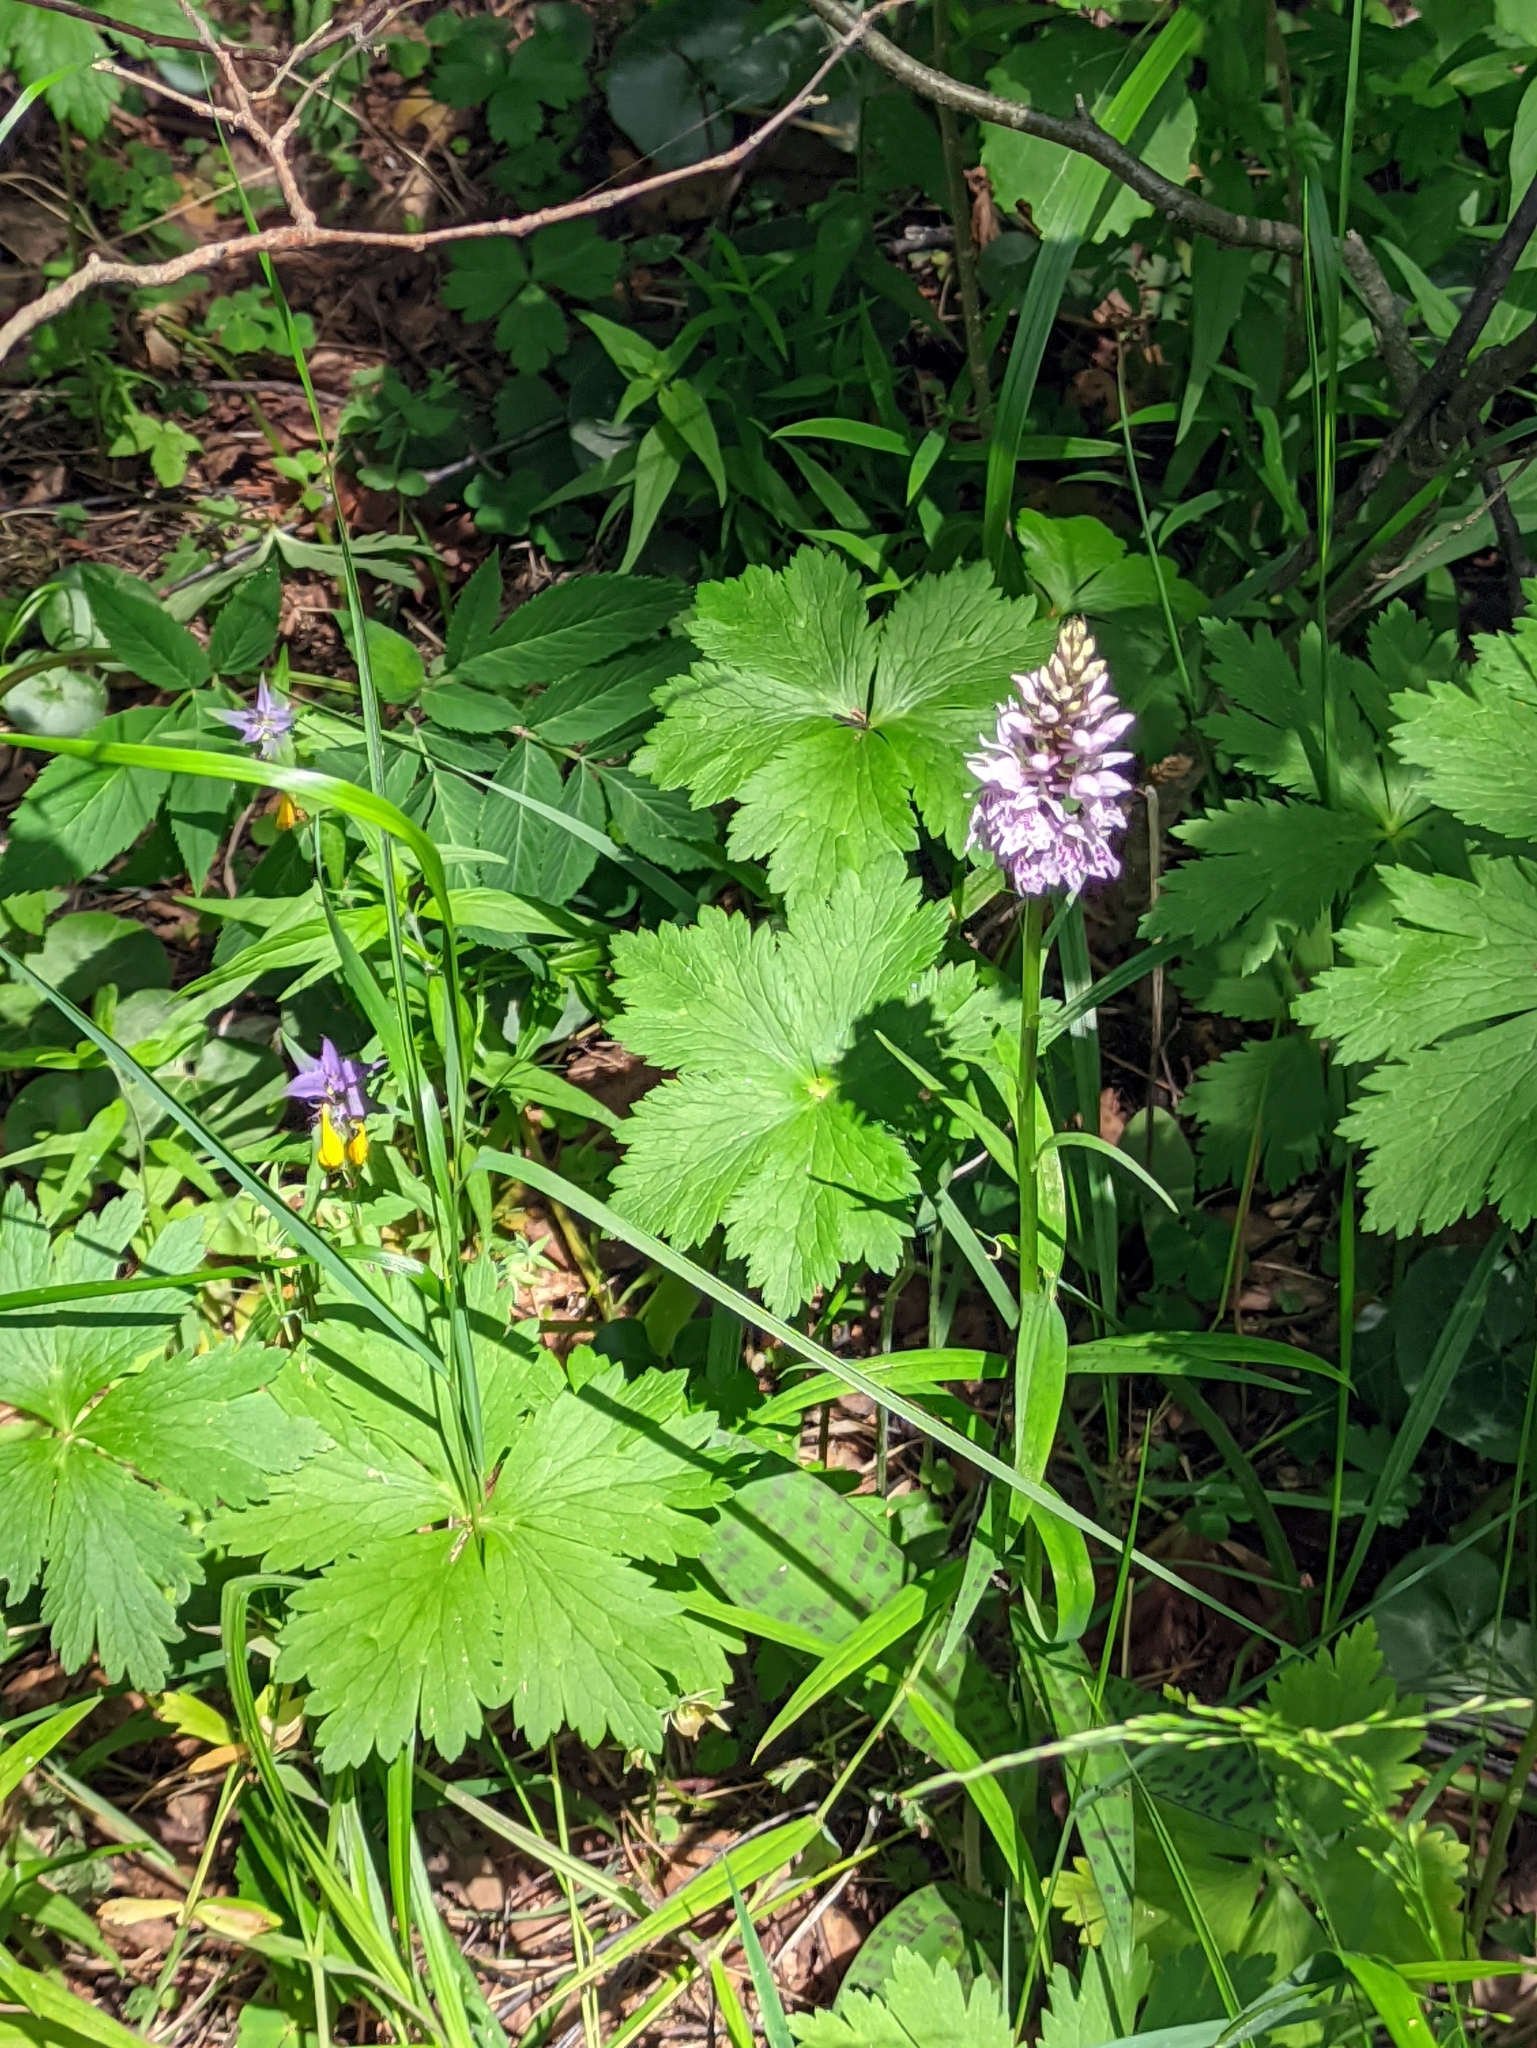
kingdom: Plantae
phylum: Tracheophyta
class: Liliopsida
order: Asparagales
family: Orchidaceae
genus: Dactylorhiza
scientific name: Dactylorhiza maculata
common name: Heath spotted-orchid
